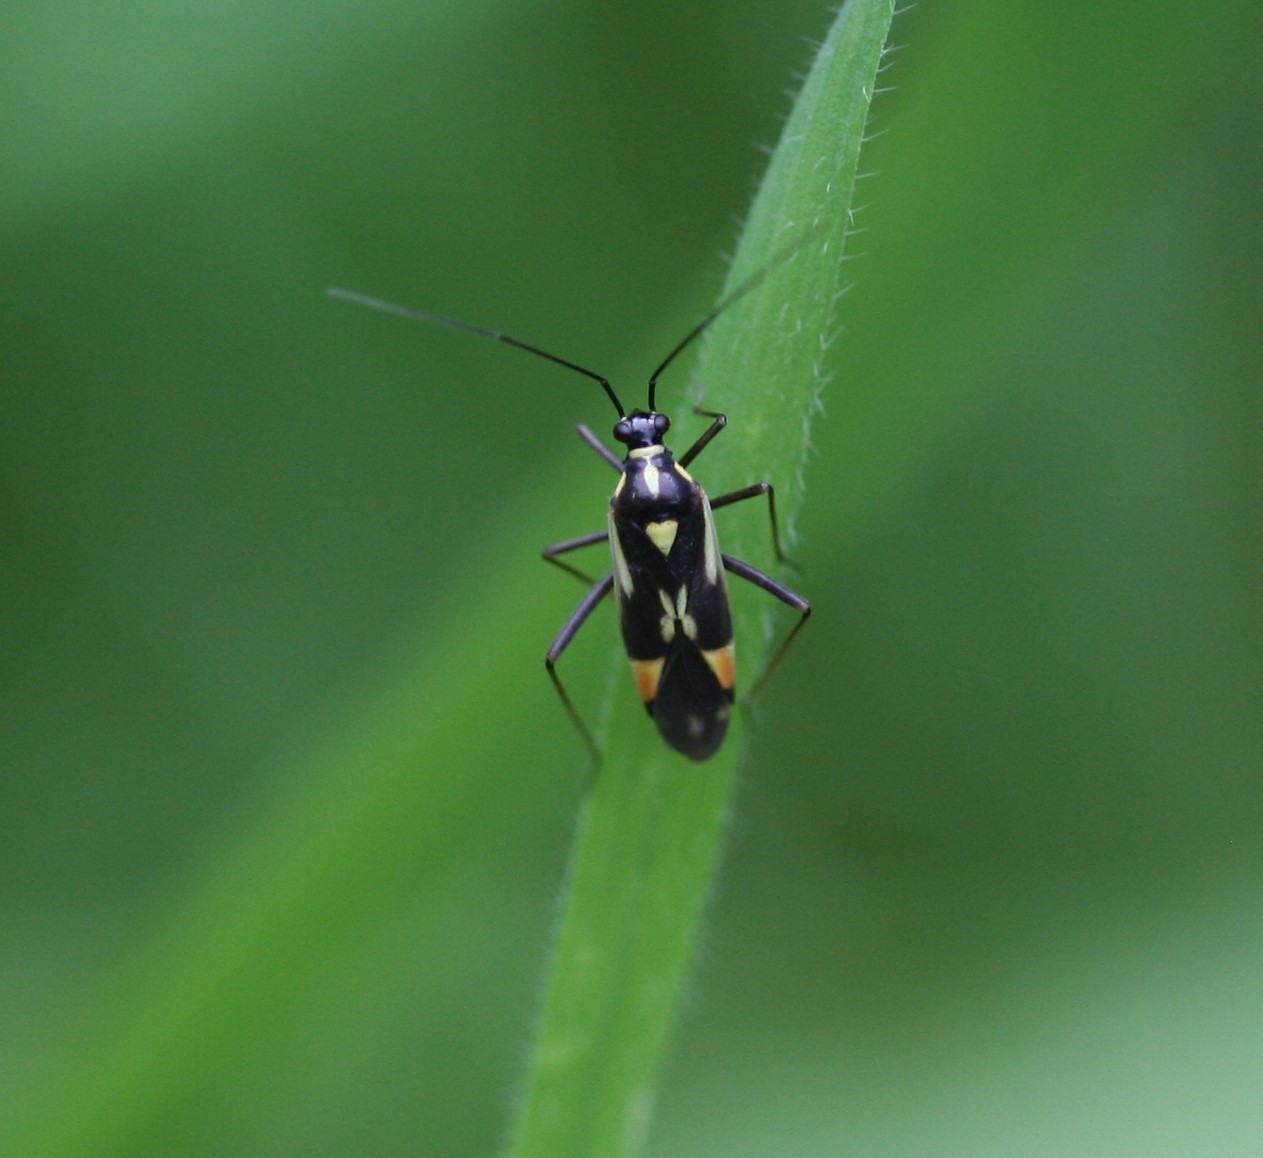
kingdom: Animalia
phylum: Arthropoda
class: Insecta
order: Hemiptera
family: Miridae
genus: Grypocoris
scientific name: Grypocoris stysi
